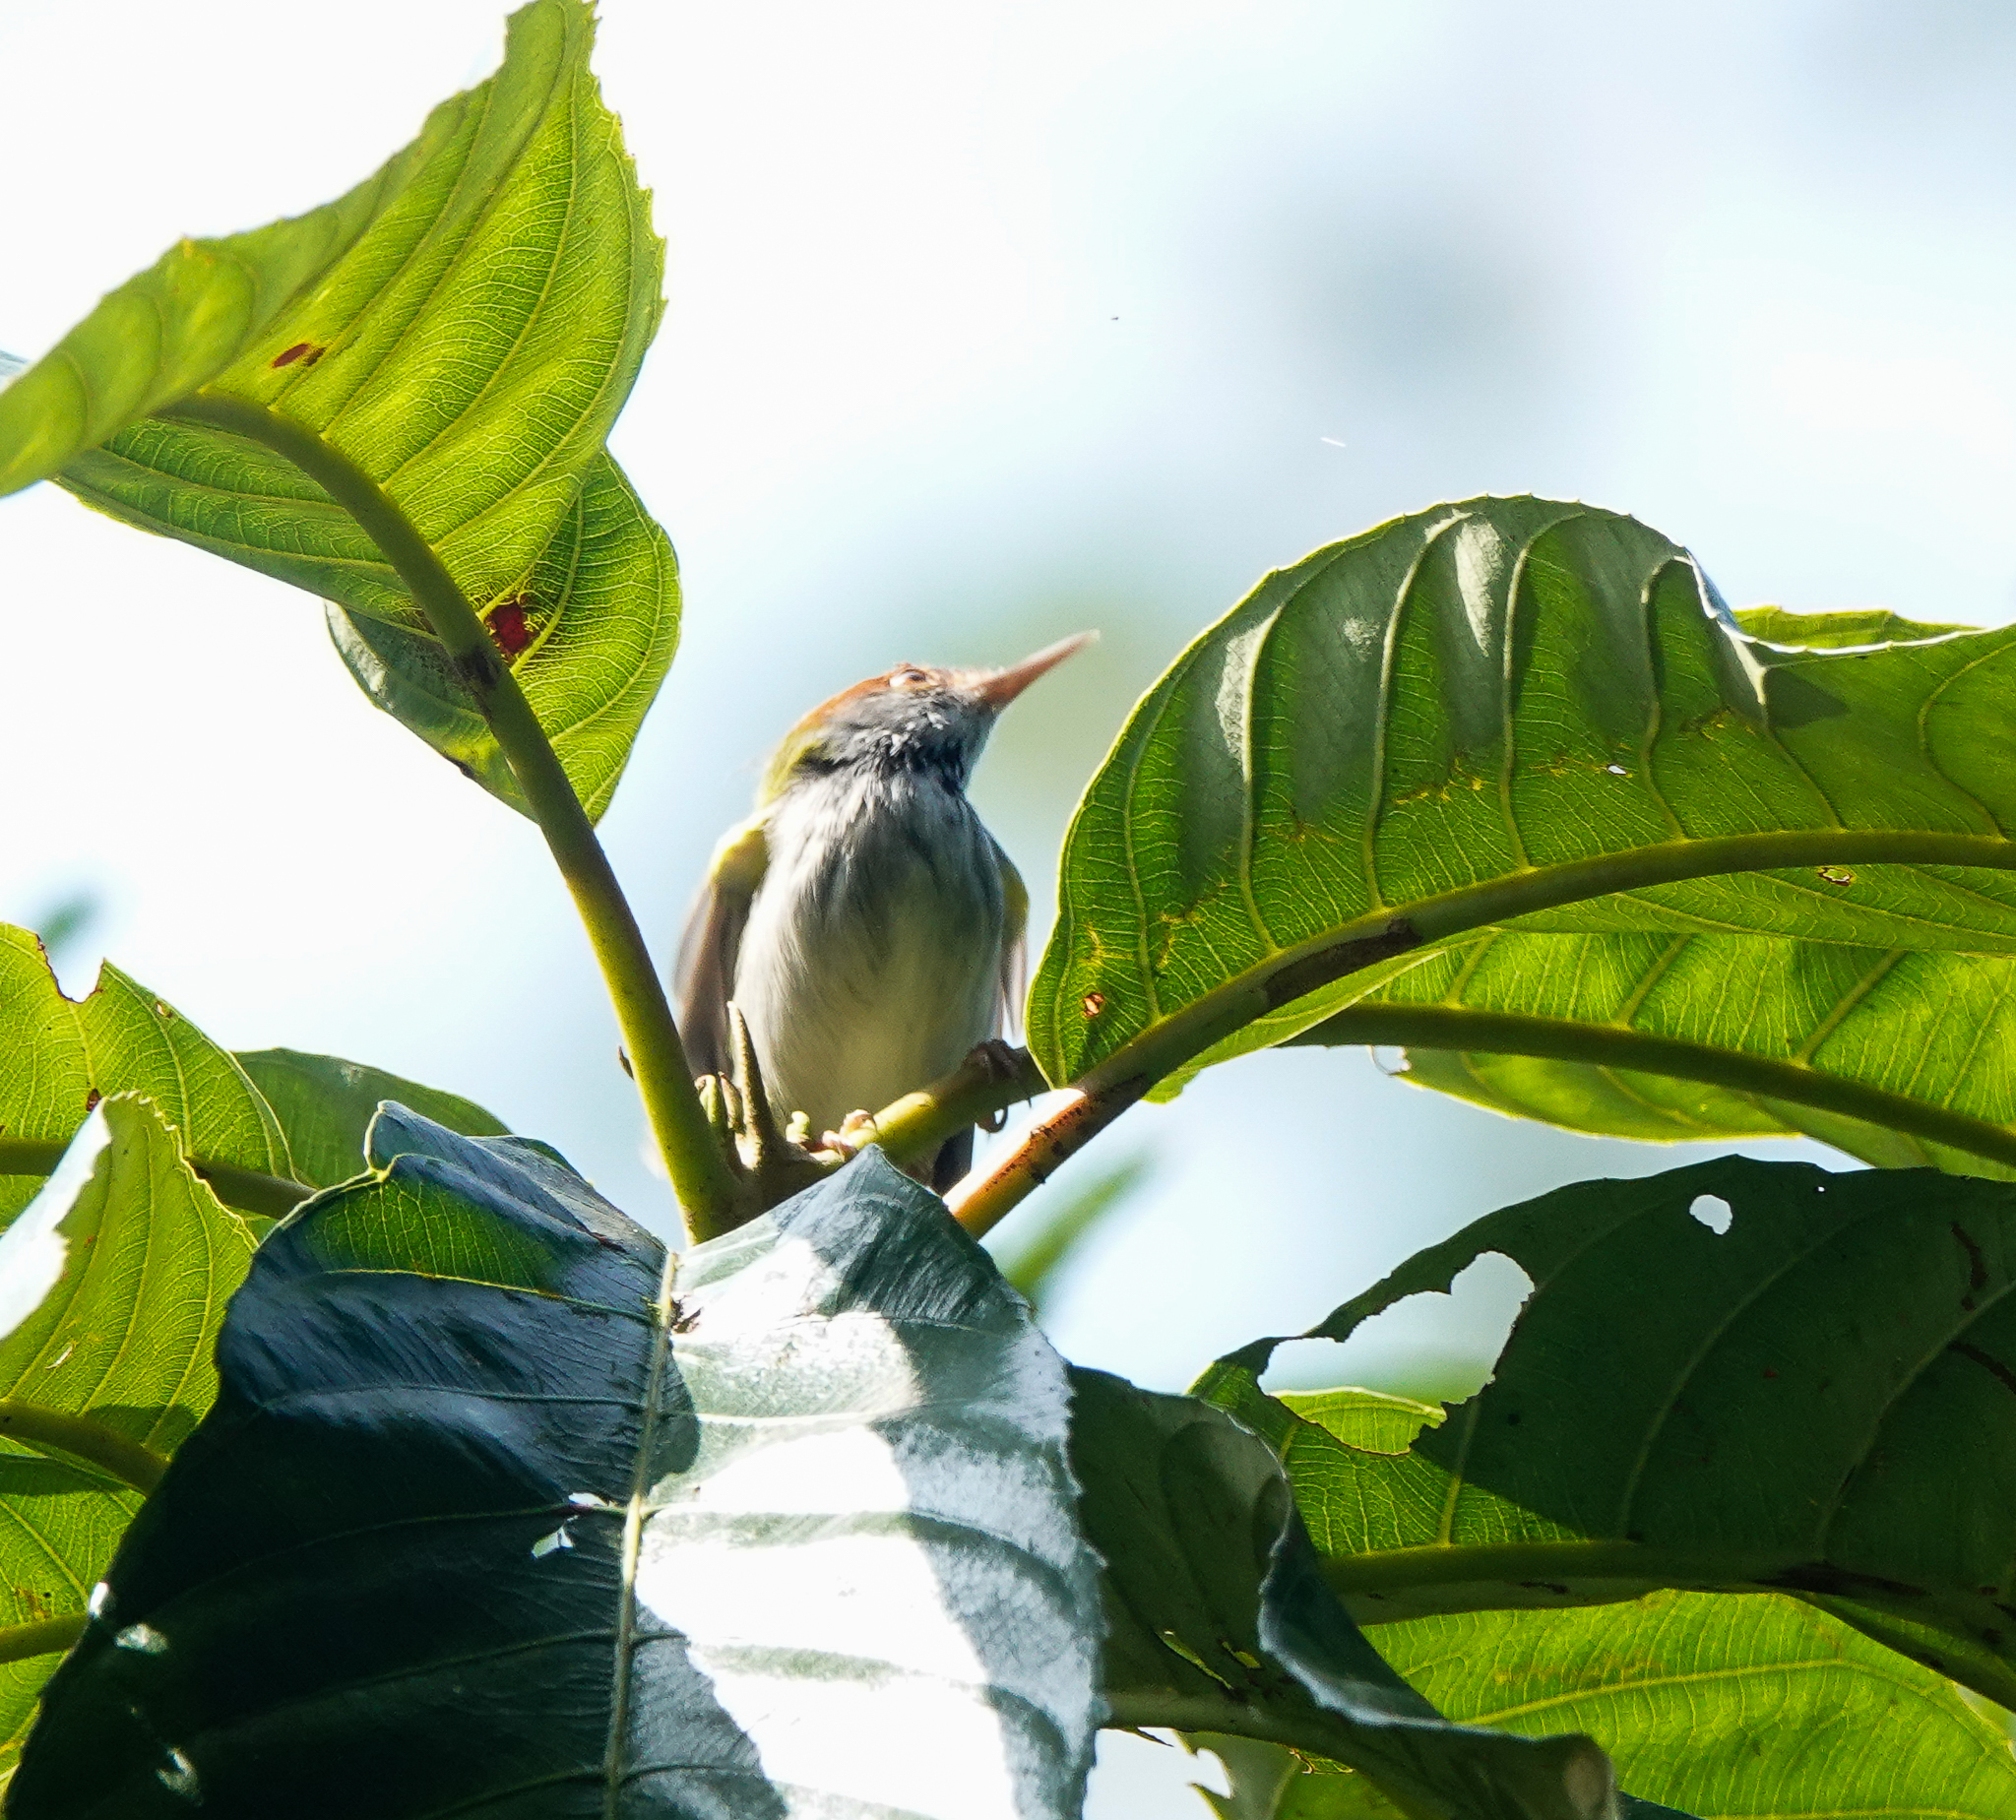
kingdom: Animalia
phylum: Chordata
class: Aves
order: Passeriformes
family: Cisticolidae
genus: Orthotomus
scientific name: Orthotomus atrogularis
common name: Dark-necked tailorbird
